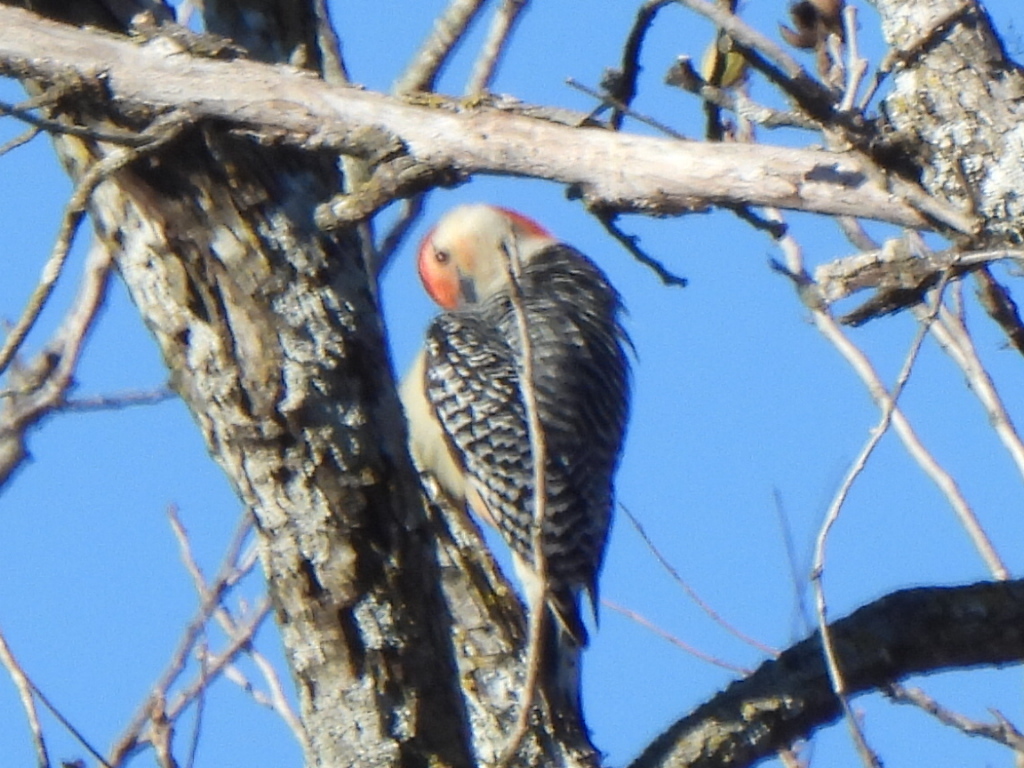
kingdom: Animalia
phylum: Chordata
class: Aves
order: Piciformes
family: Picidae
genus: Melanerpes
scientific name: Melanerpes carolinus
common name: Red-bellied woodpecker
